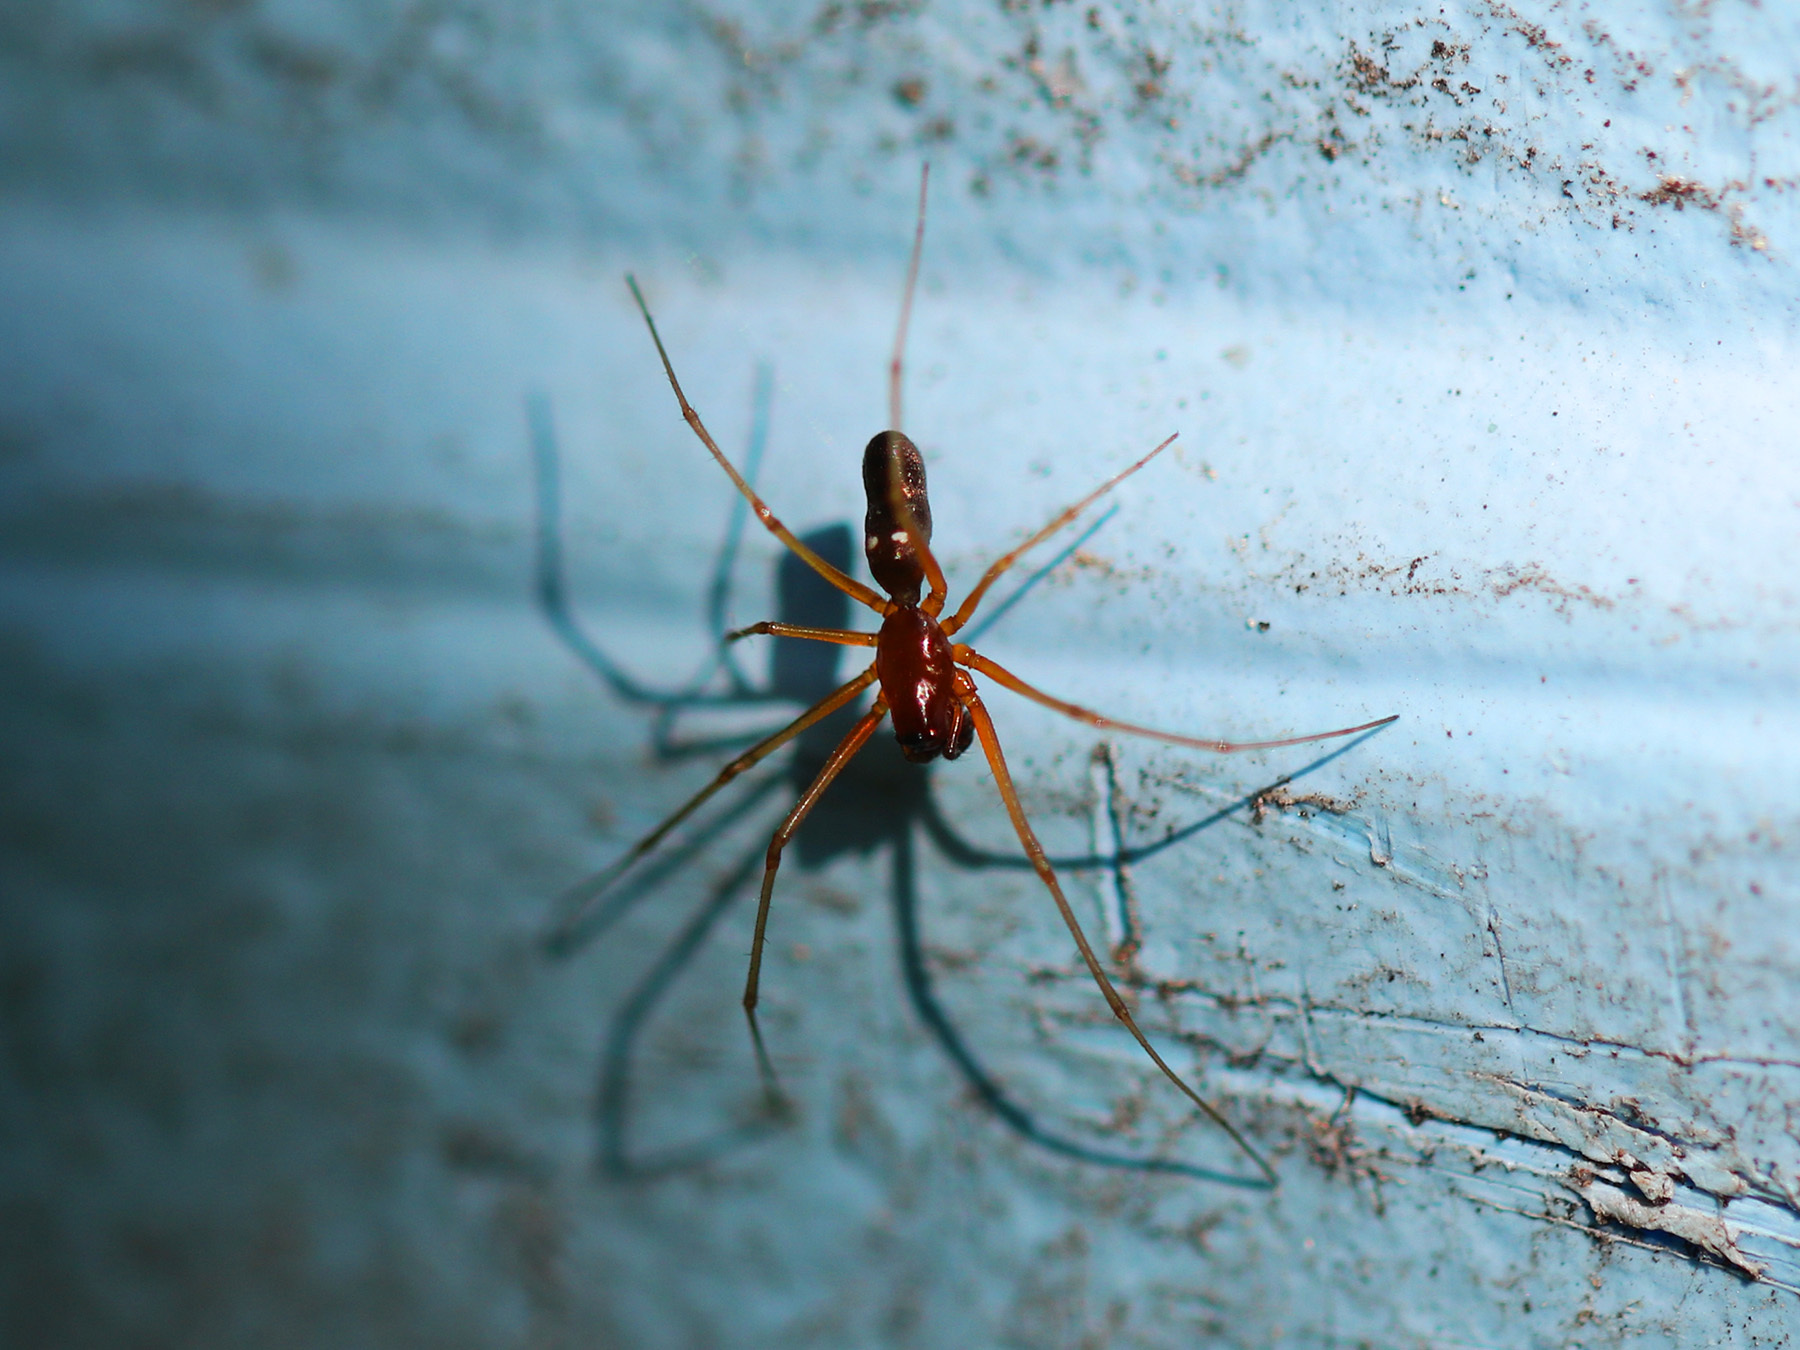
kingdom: Animalia
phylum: Arthropoda
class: Arachnida
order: Araneae
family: Linyphiidae
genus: Microlinyphia
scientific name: Microlinyphia pusilla
